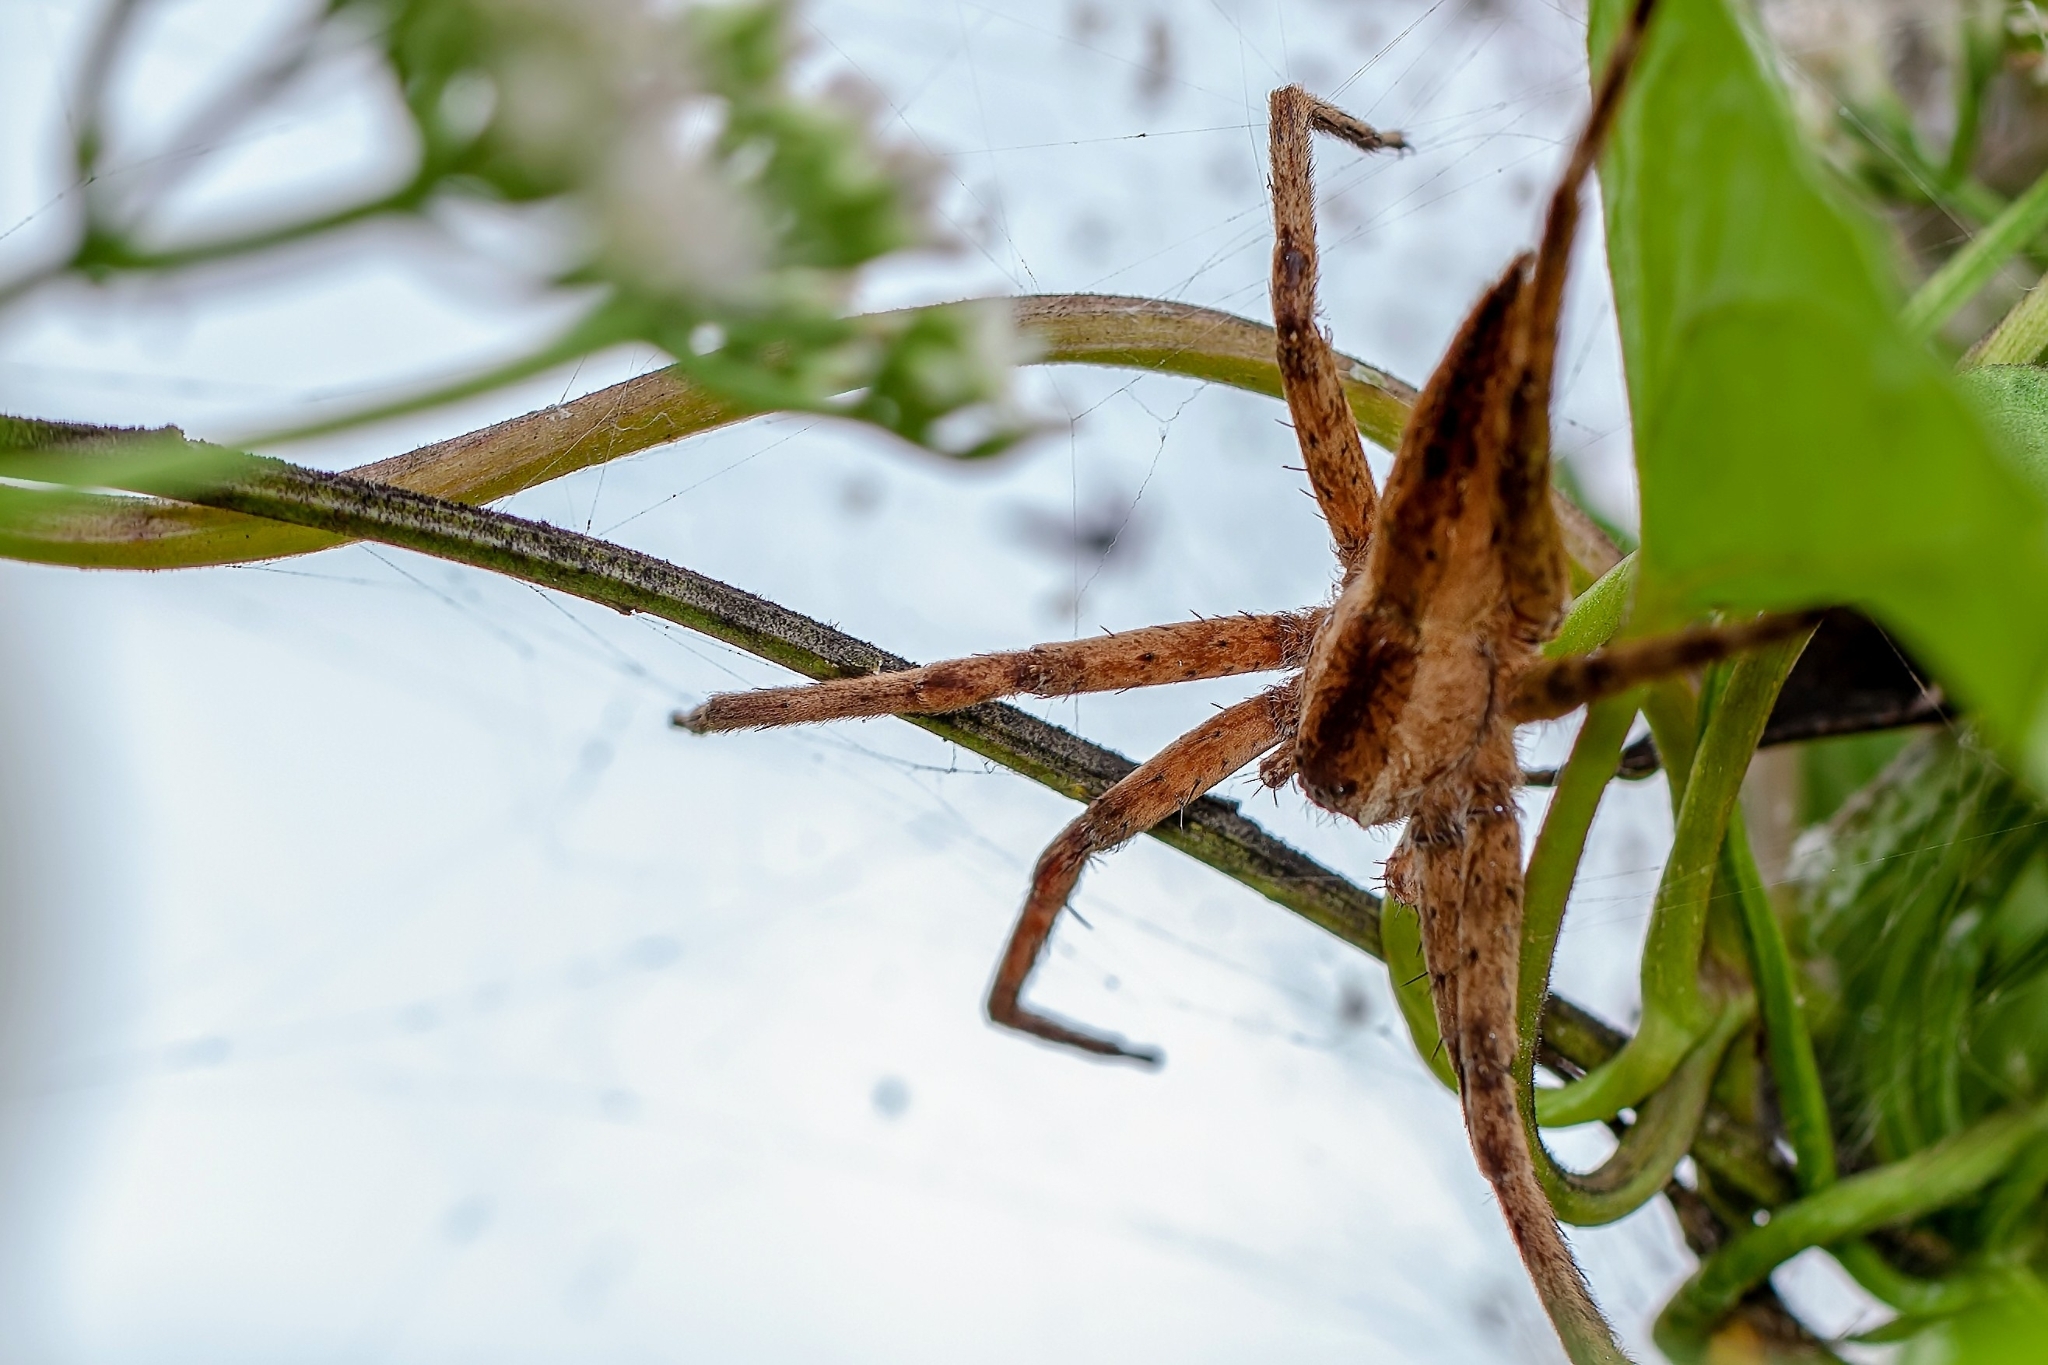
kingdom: Animalia
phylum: Arthropoda
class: Arachnida
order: Araneae
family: Pisauridae
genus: Pisaurina
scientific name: Pisaurina mira
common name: American nursery web spider
